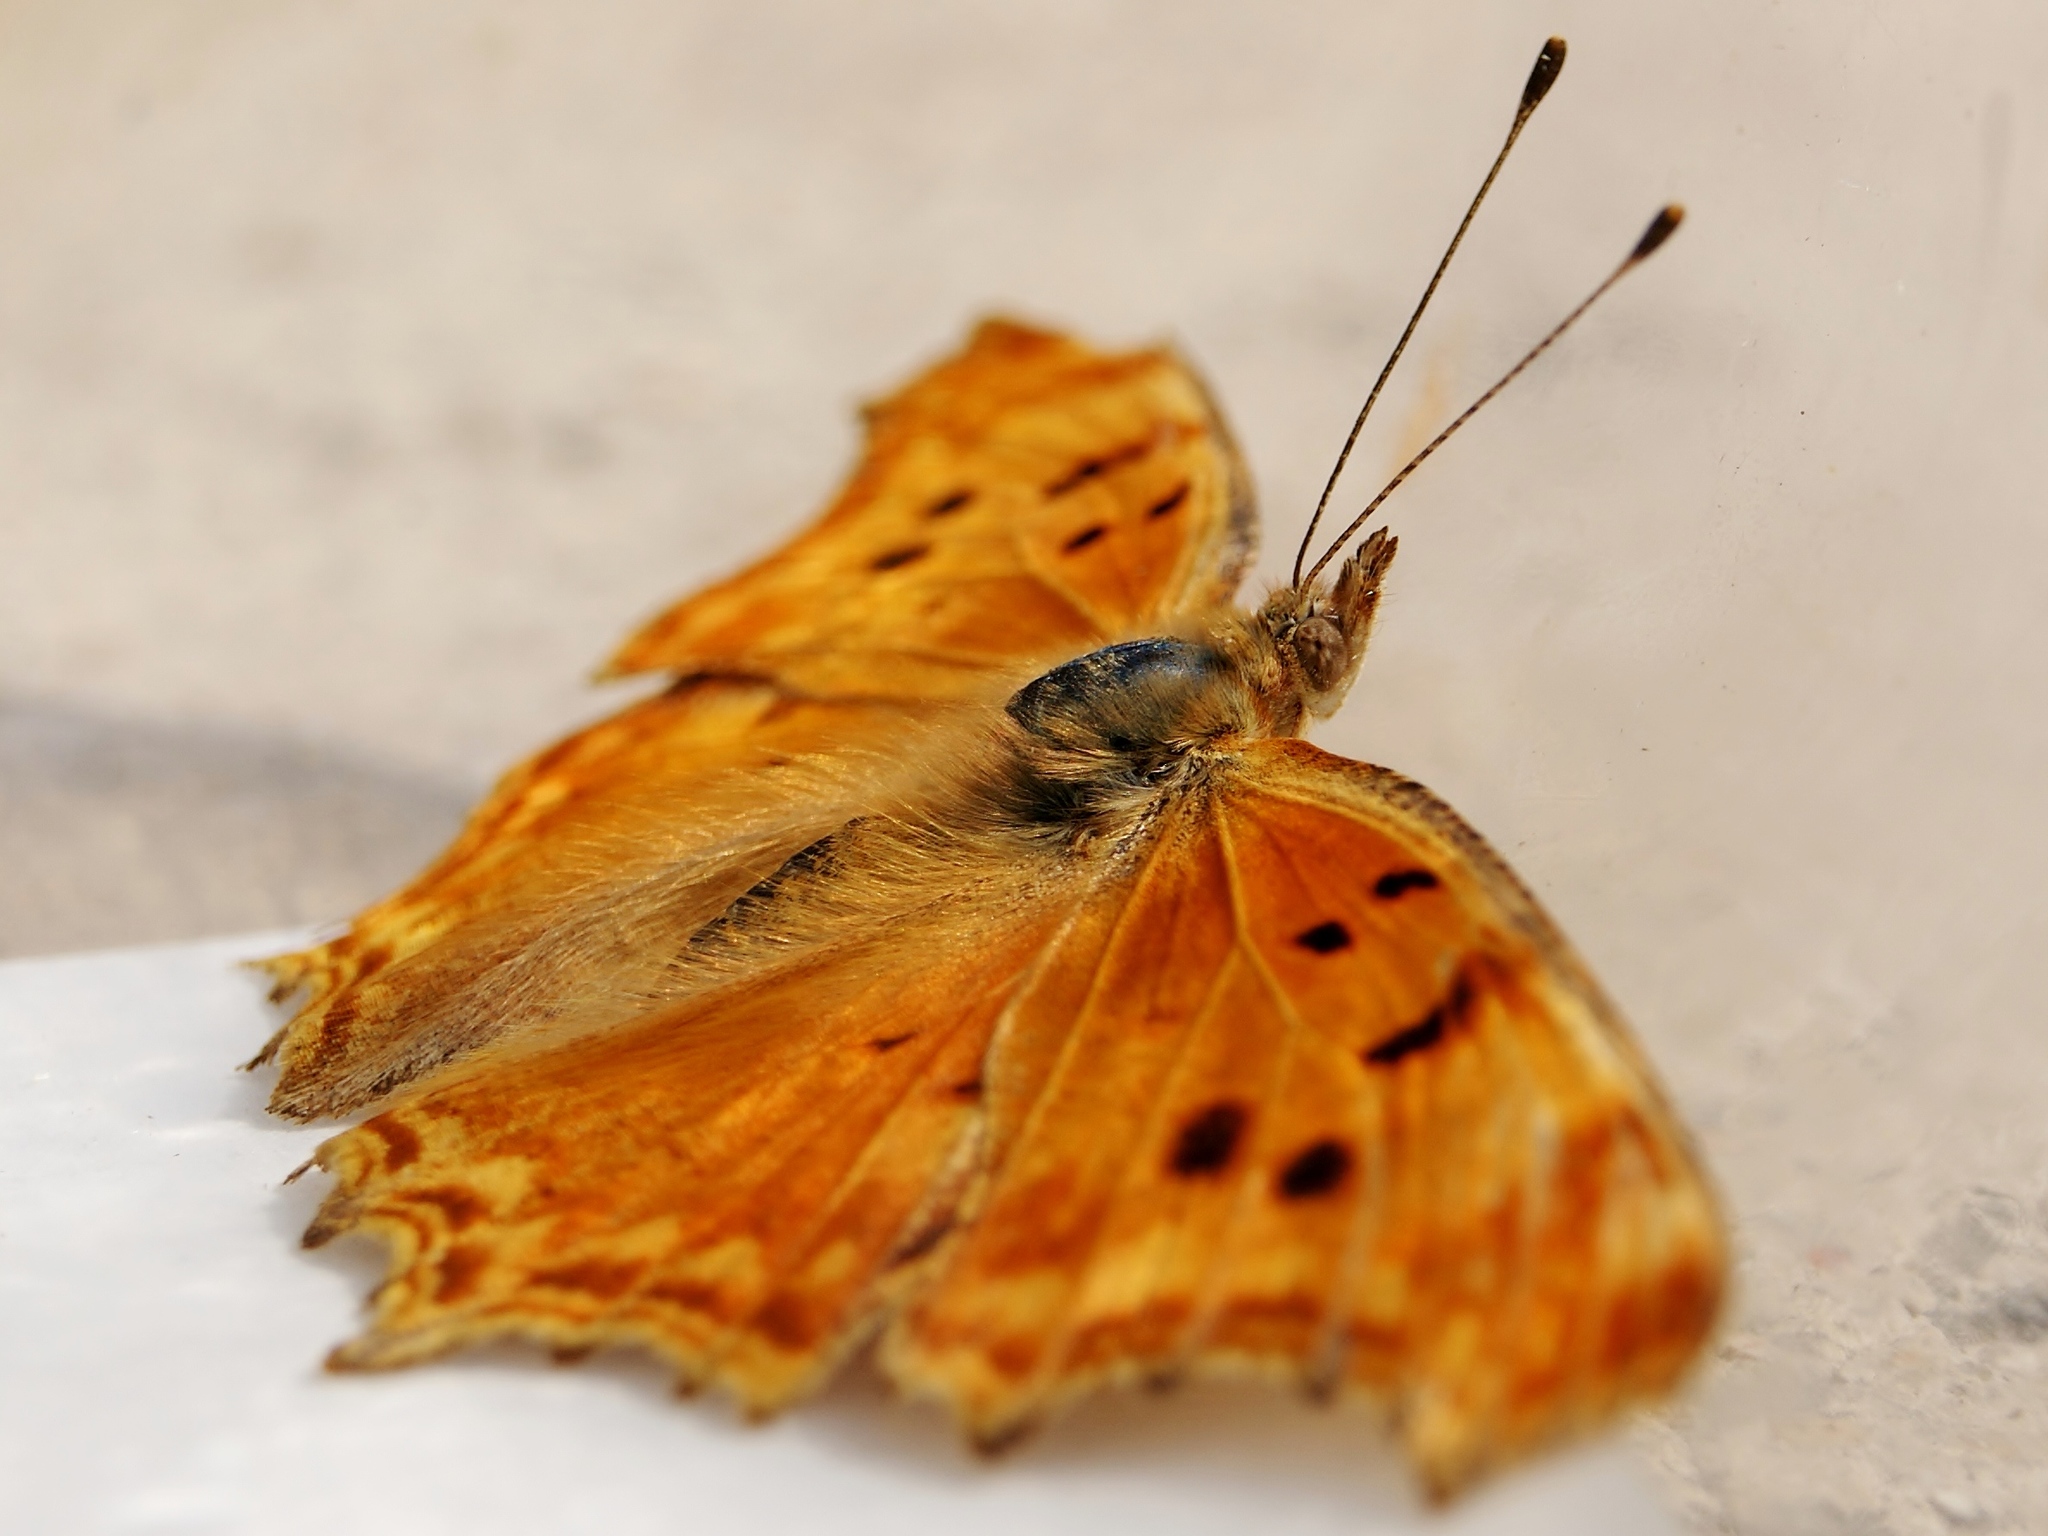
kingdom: Animalia
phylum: Arthropoda
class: Insecta
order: Lepidoptera
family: Nymphalidae
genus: Polygonia
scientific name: Polygonia egea
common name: Southern comma
